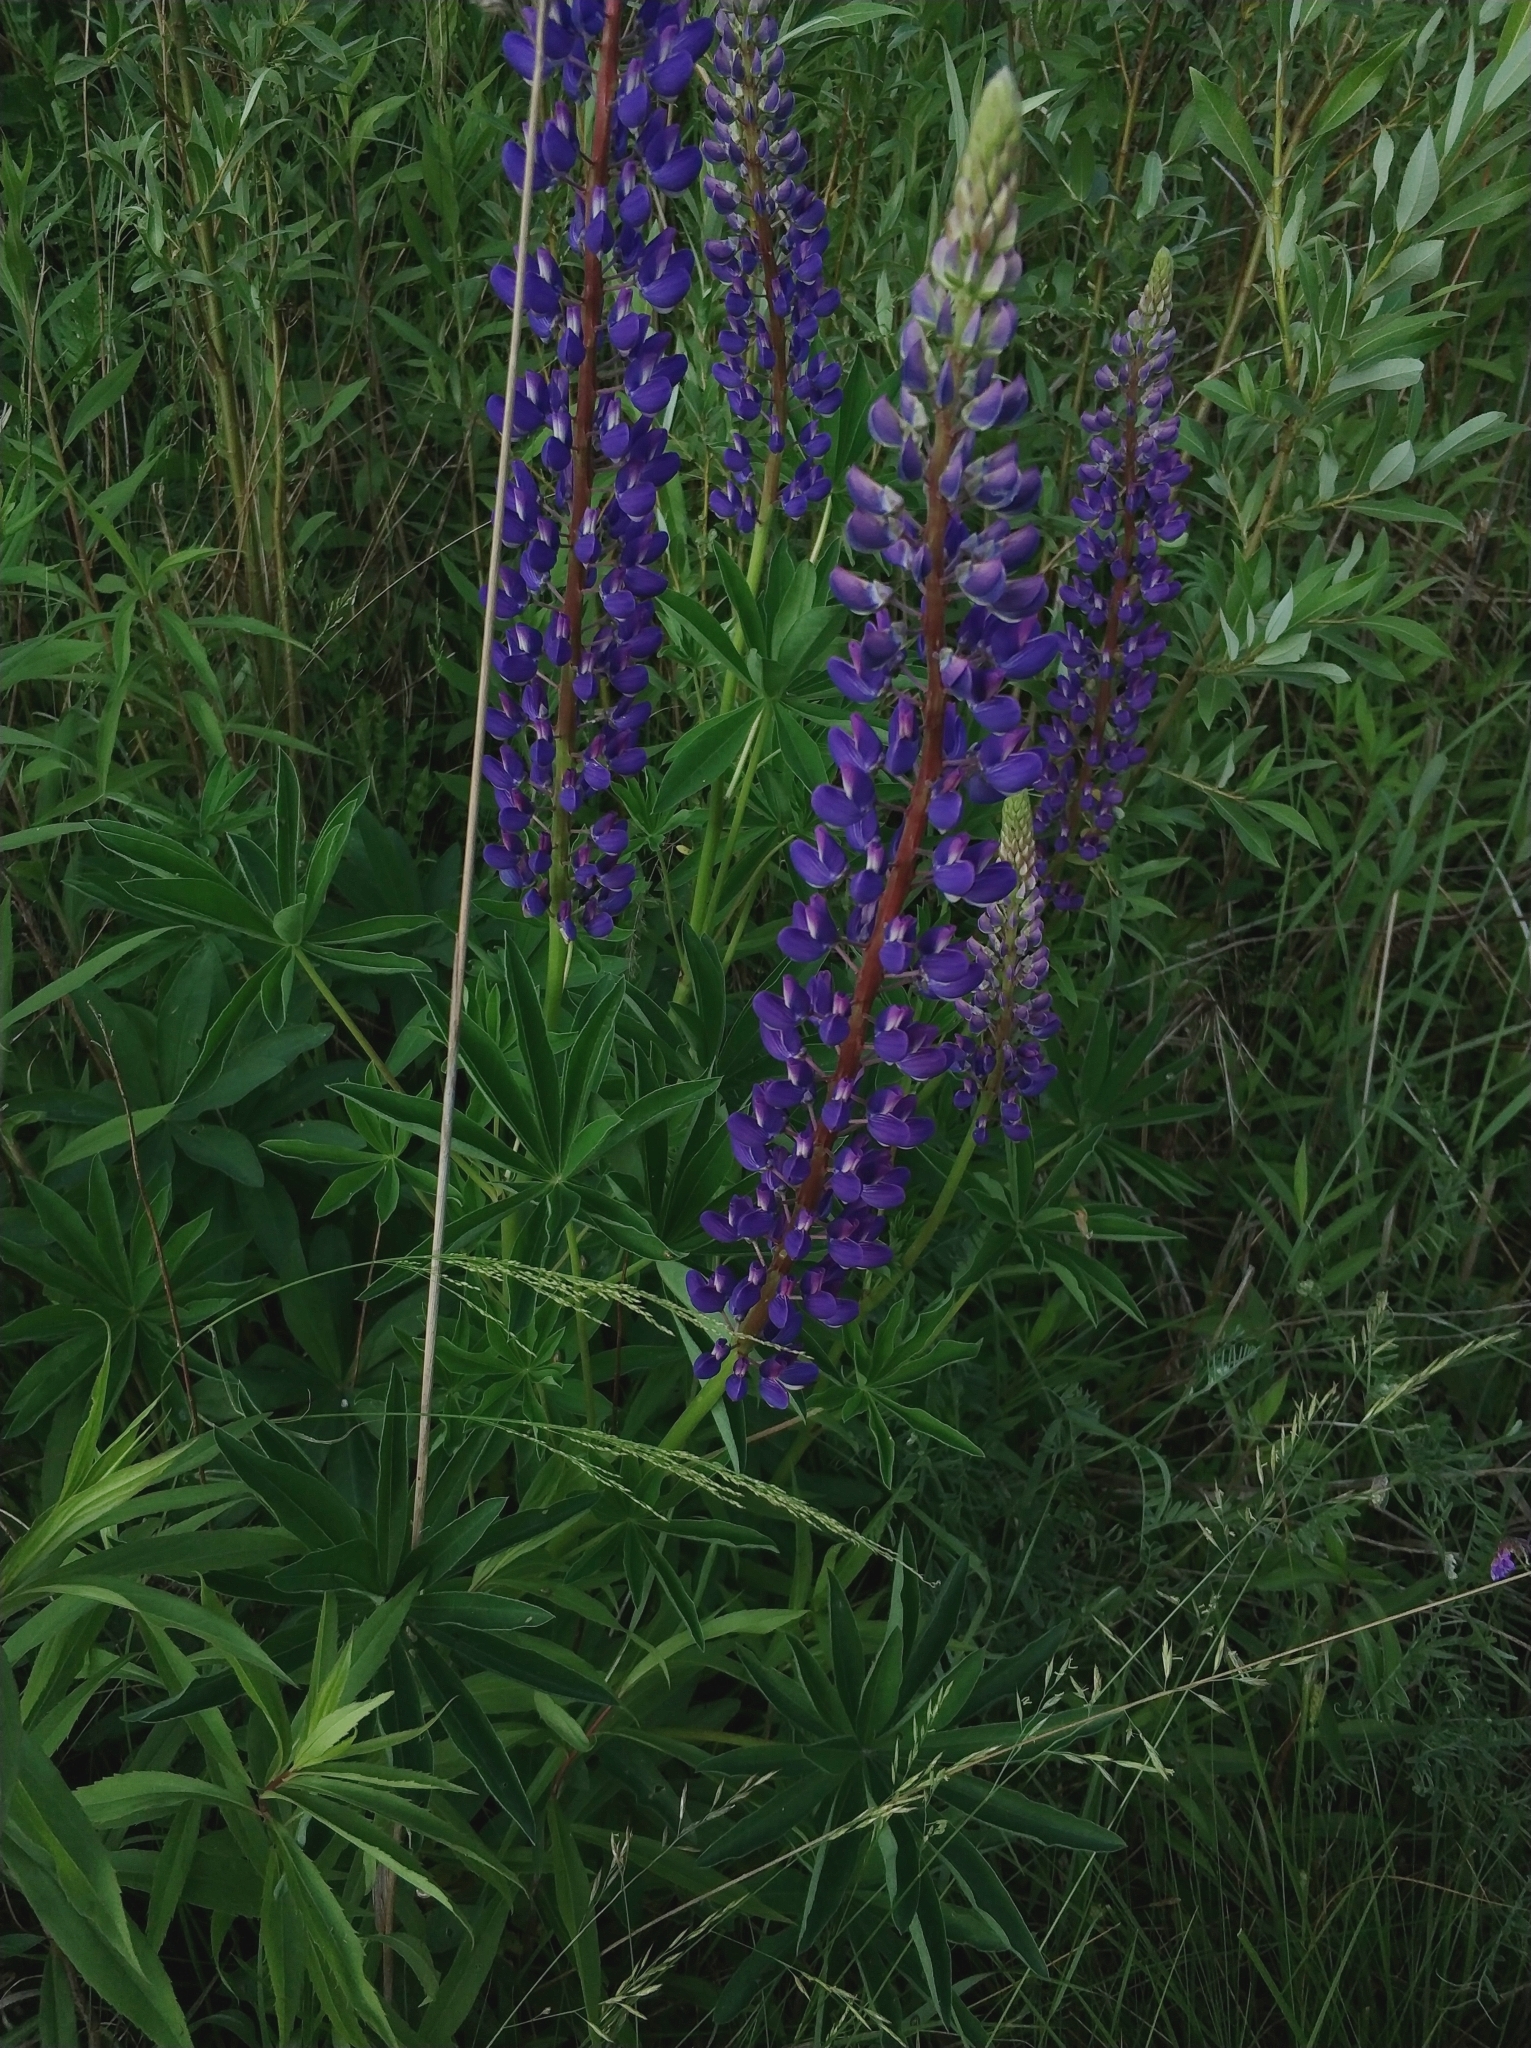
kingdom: Plantae
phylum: Tracheophyta
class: Magnoliopsida
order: Fabales
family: Fabaceae
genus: Lupinus
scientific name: Lupinus polyphyllus
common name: Garden lupin
